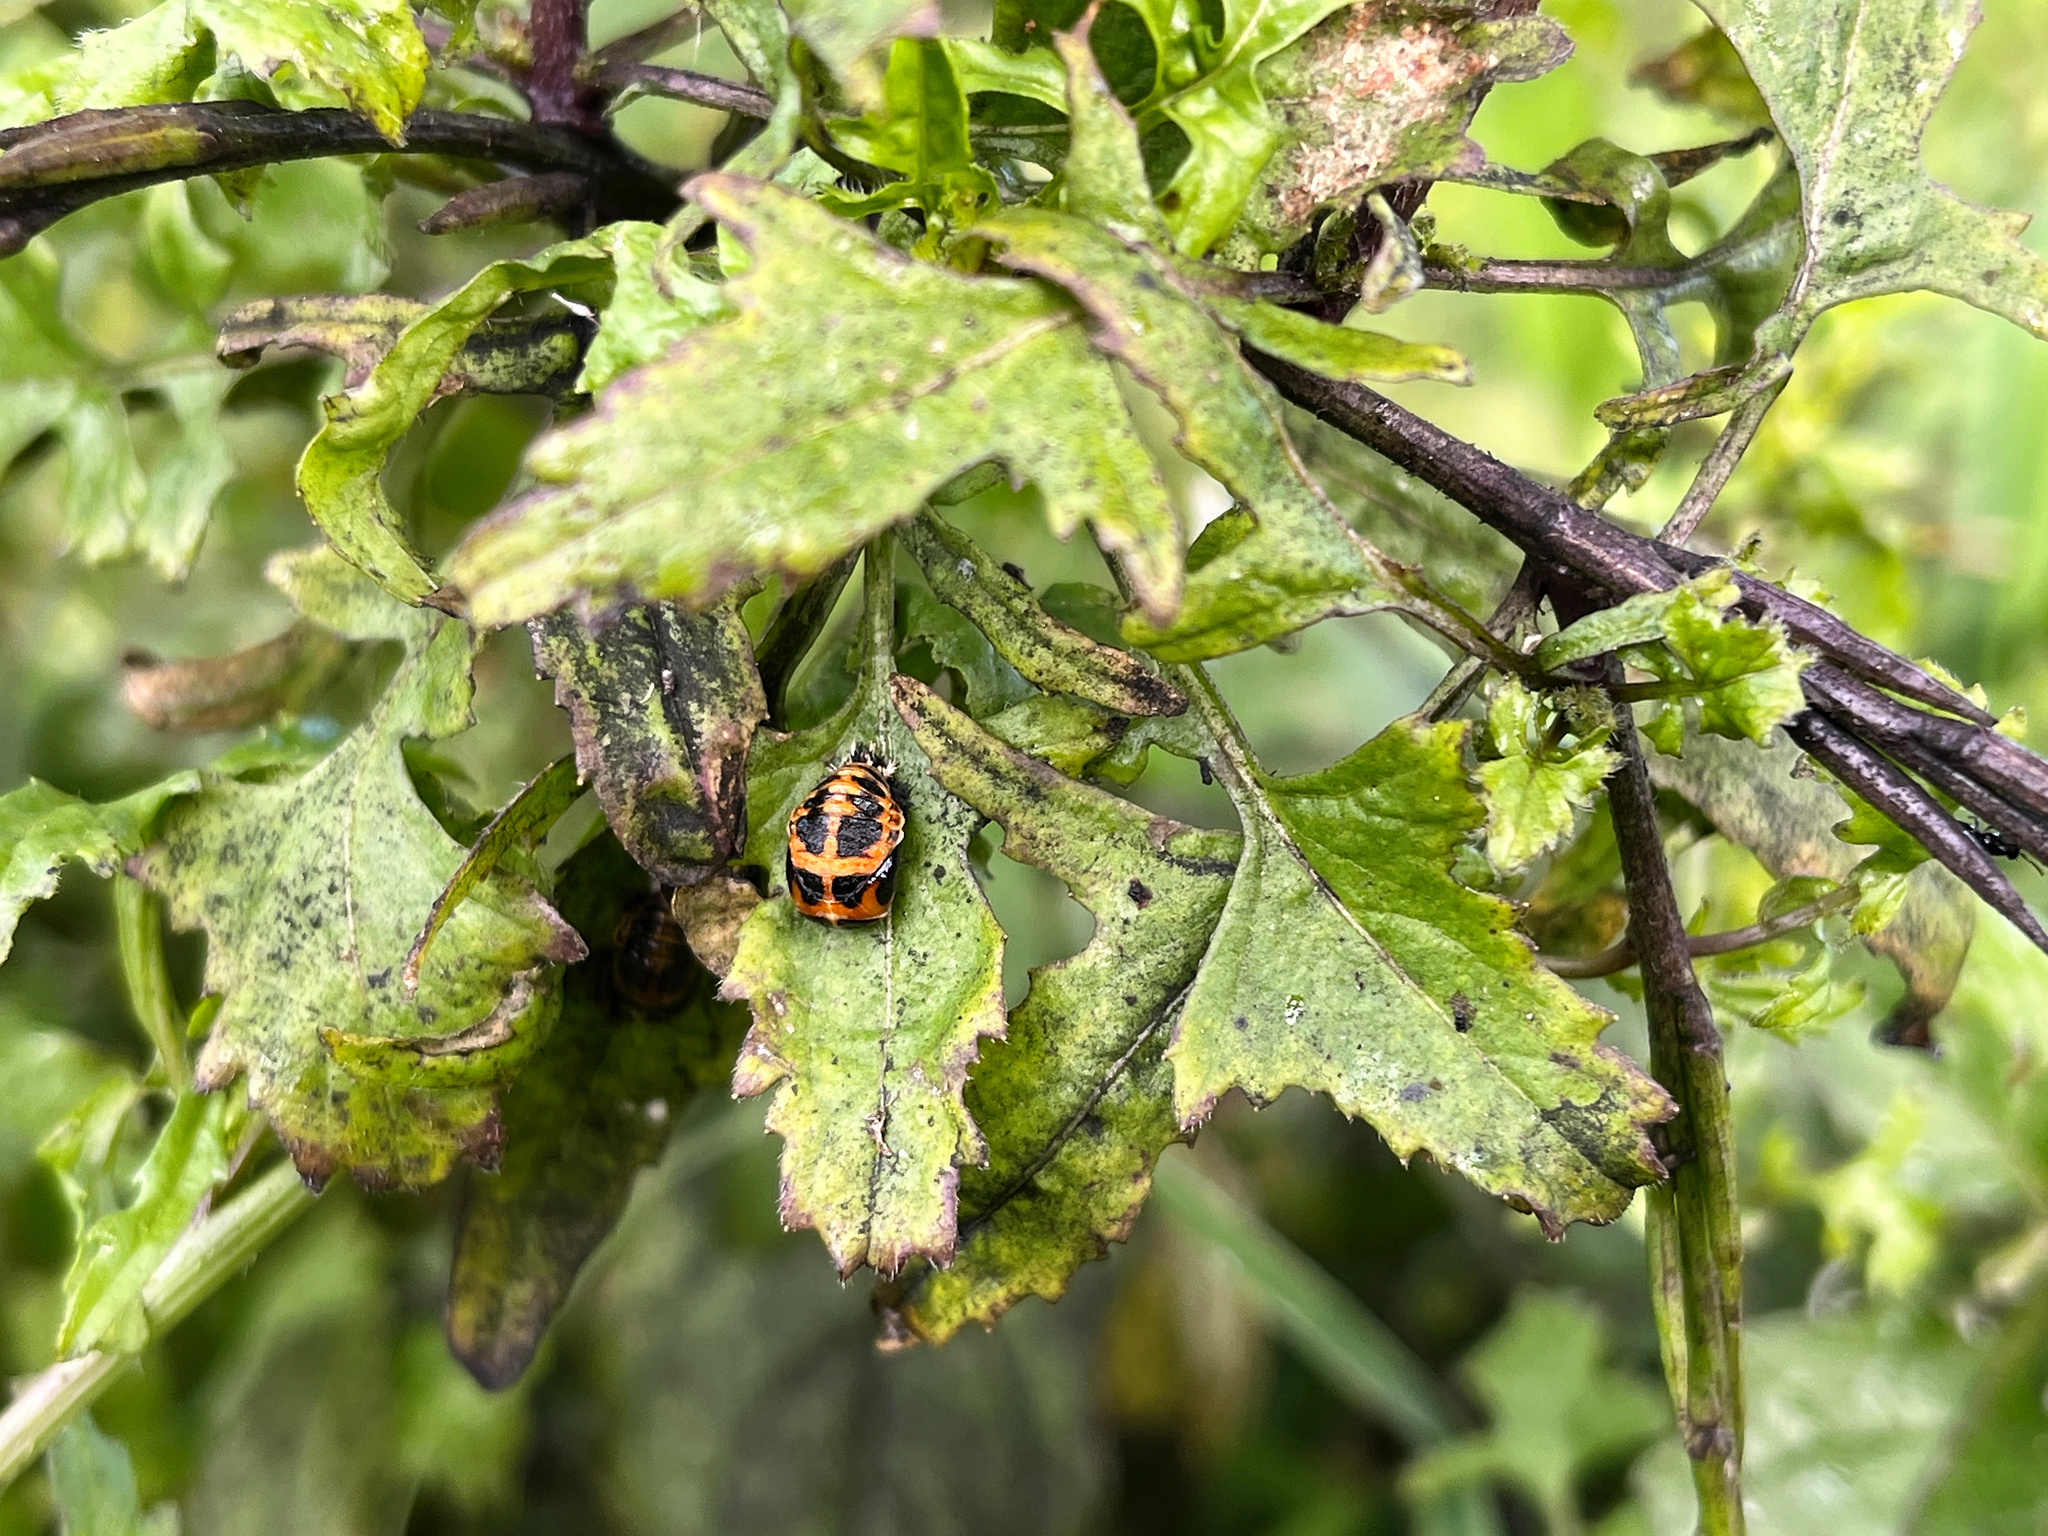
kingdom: Animalia
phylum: Arthropoda
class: Insecta
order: Coleoptera
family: Coccinellidae
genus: Harmonia
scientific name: Harmonia axyridis
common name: Harlequin ladybird
